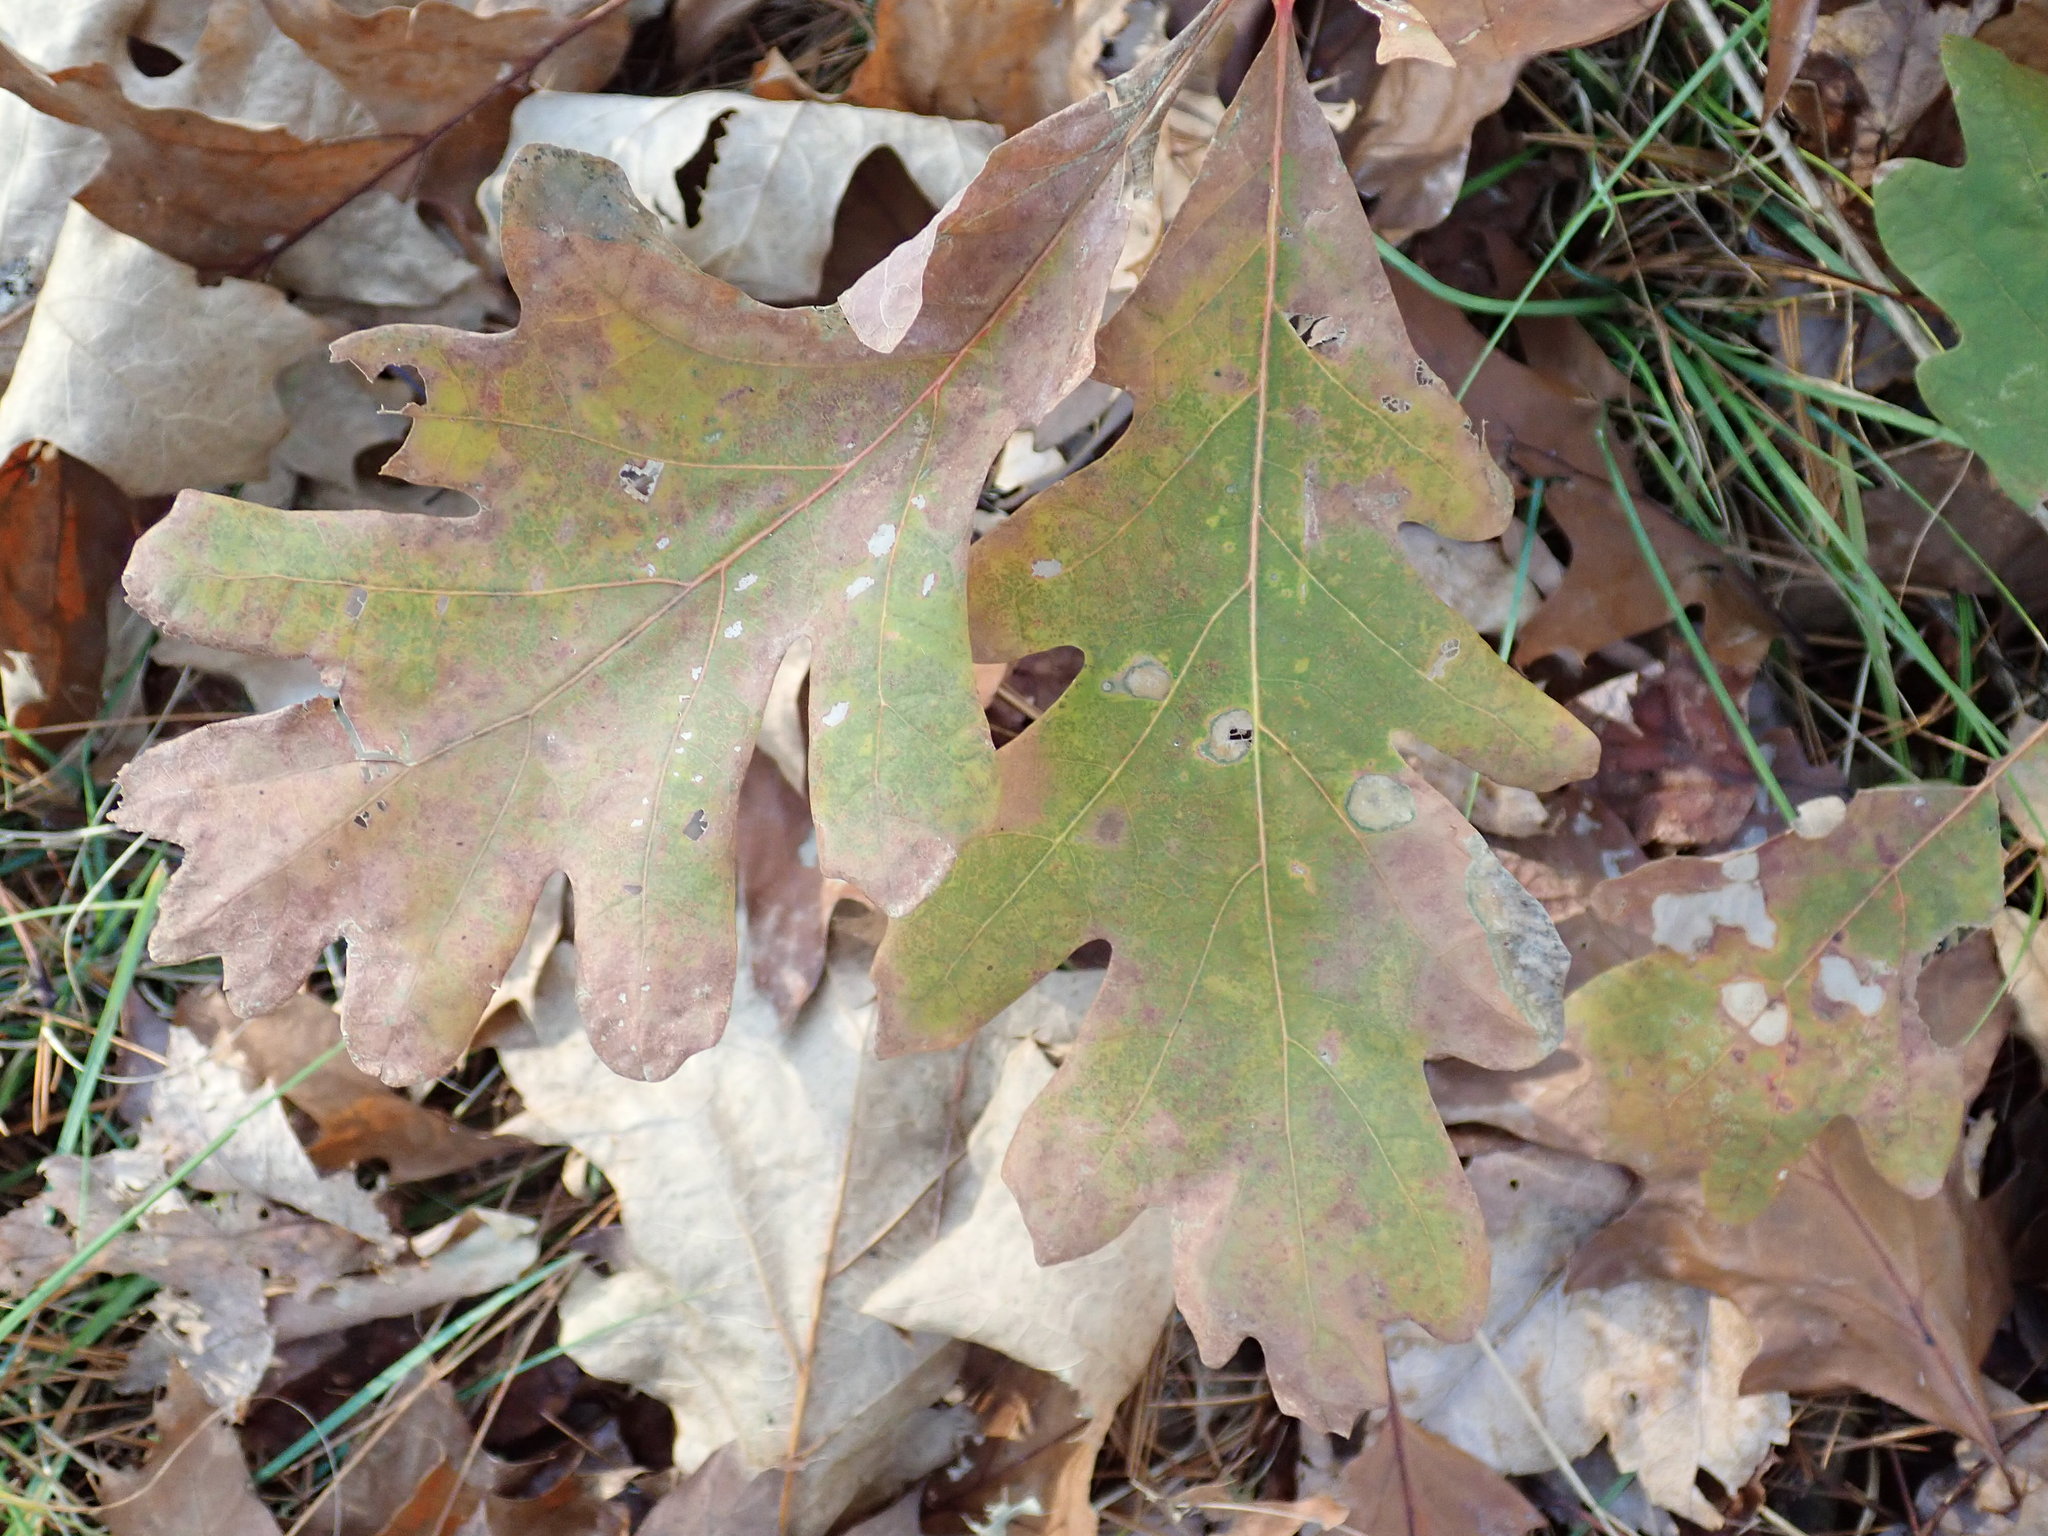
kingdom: Plantae
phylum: Tracheophyta
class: Magnoliopsida
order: Fagales
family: Fagaceae
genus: Quercus
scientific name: Quercus alba
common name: White oak
